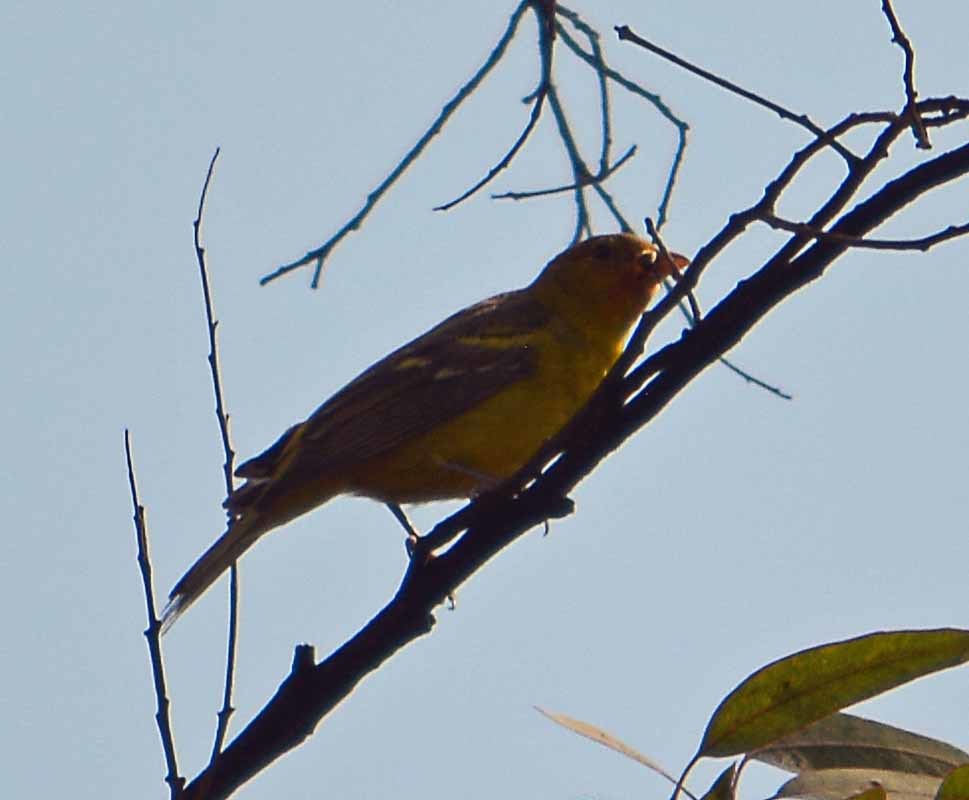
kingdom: Animalia
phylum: Chordata
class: Aves
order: Passeriformes
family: Cardinalidae
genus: Piranga
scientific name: Piranga ludoviciana
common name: Western tanager
